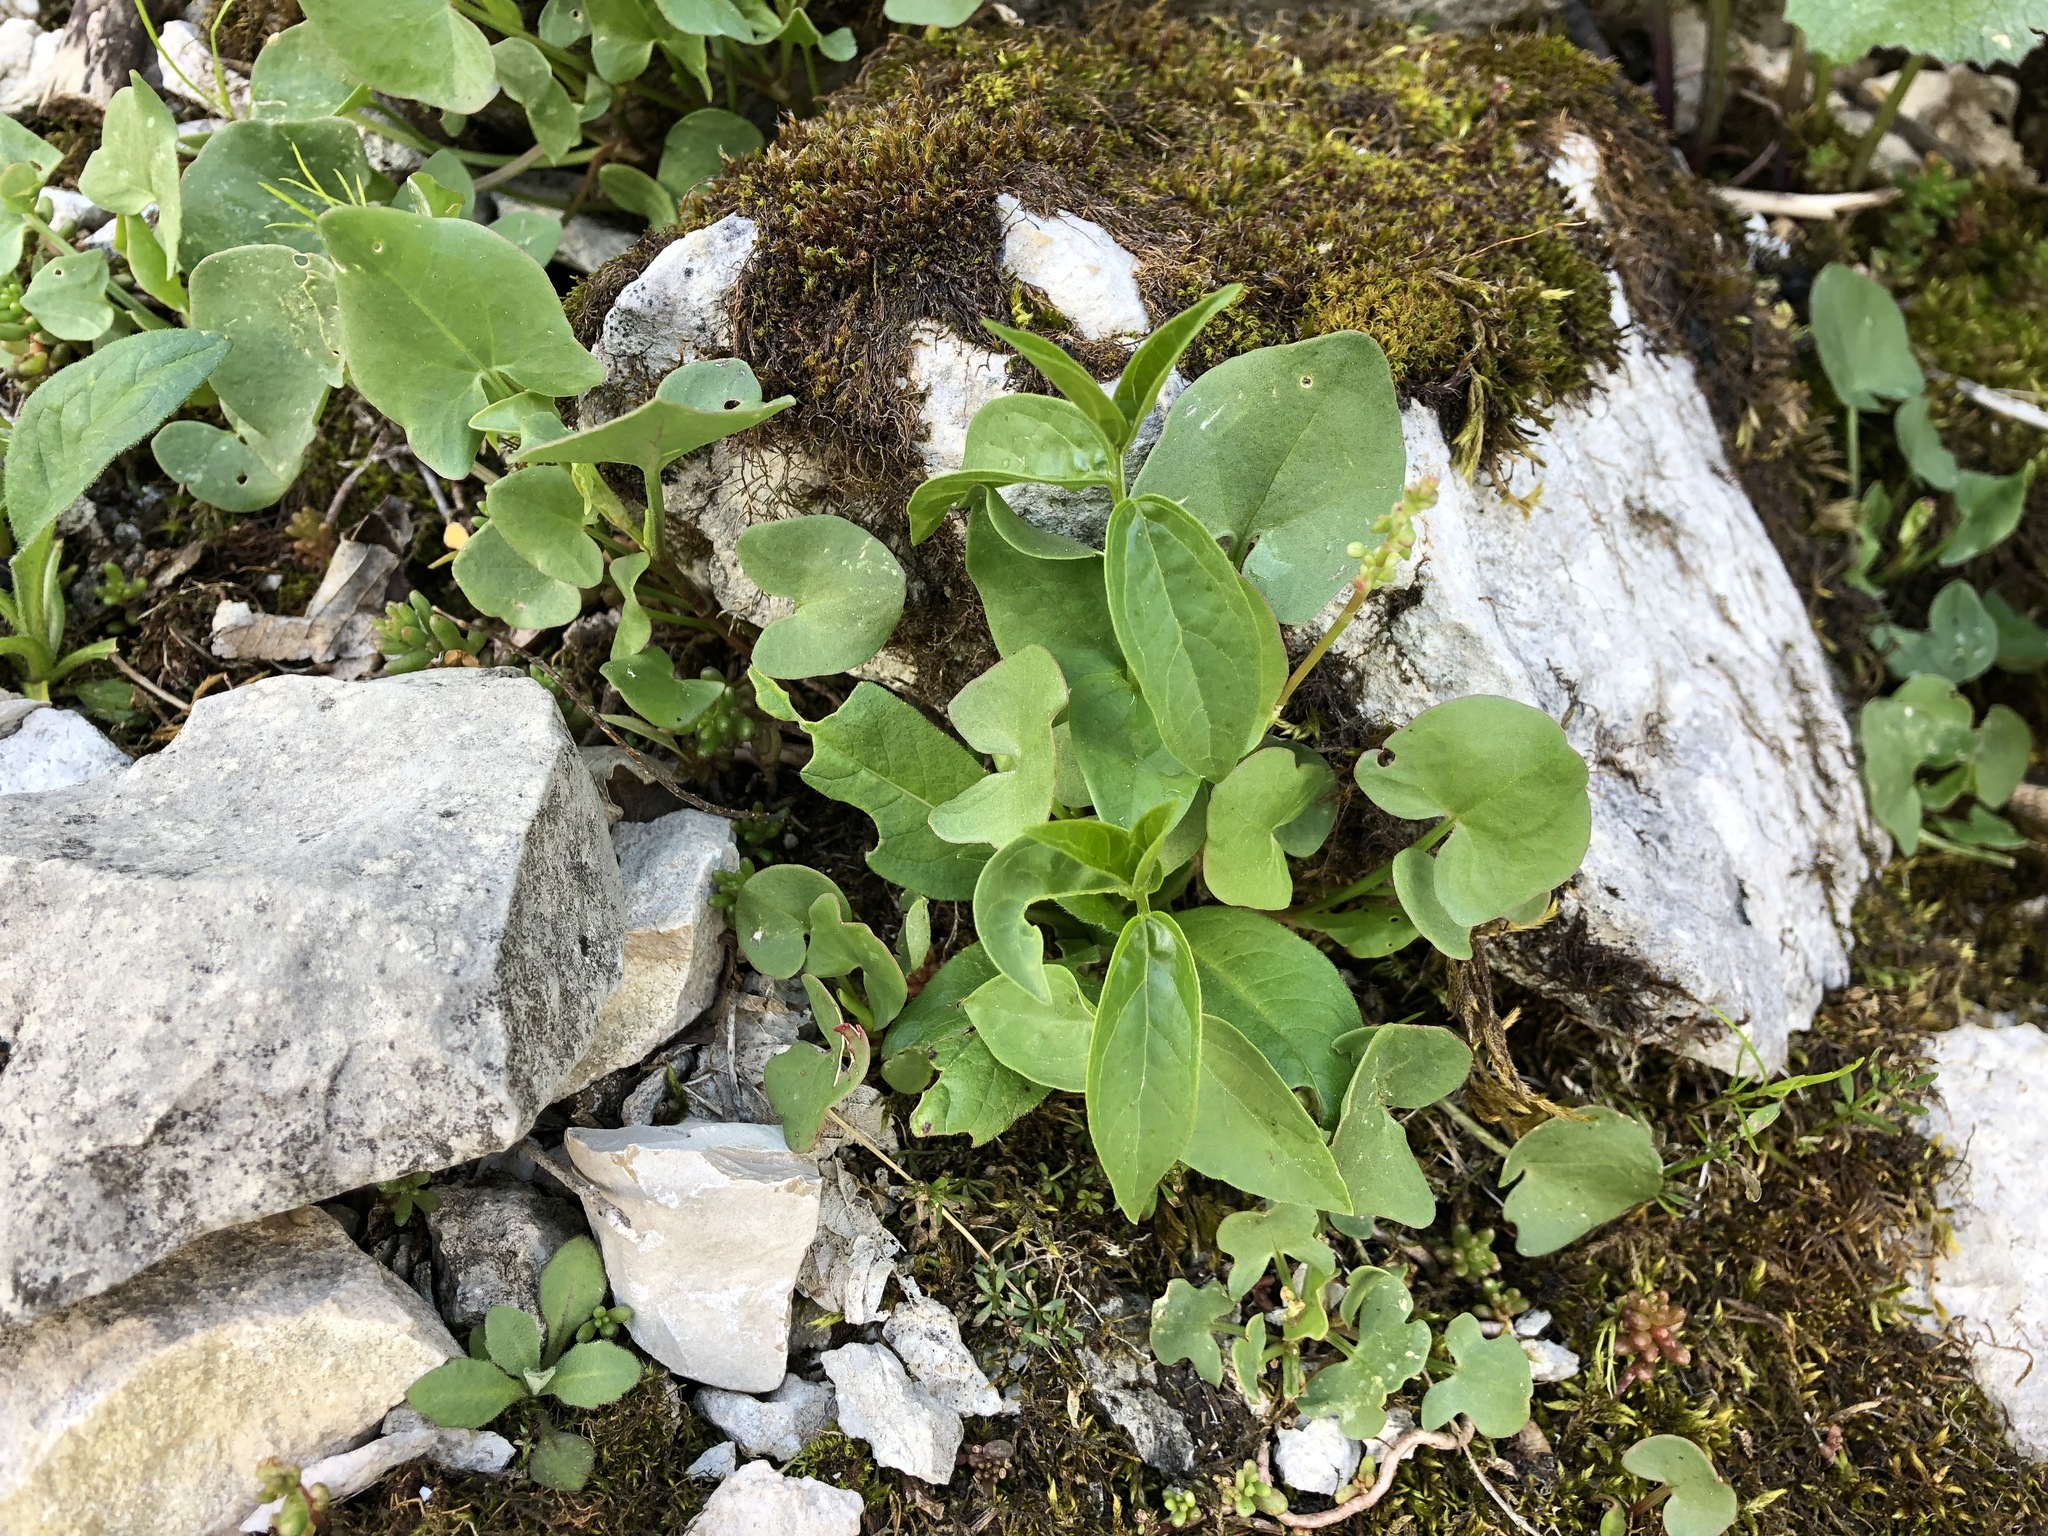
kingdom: Plantae
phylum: Tracheophyta
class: Magnoliopsida
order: Caryophyllales
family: Polygonaceae
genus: Rumex
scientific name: Rumex scutatus
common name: French sorrel
